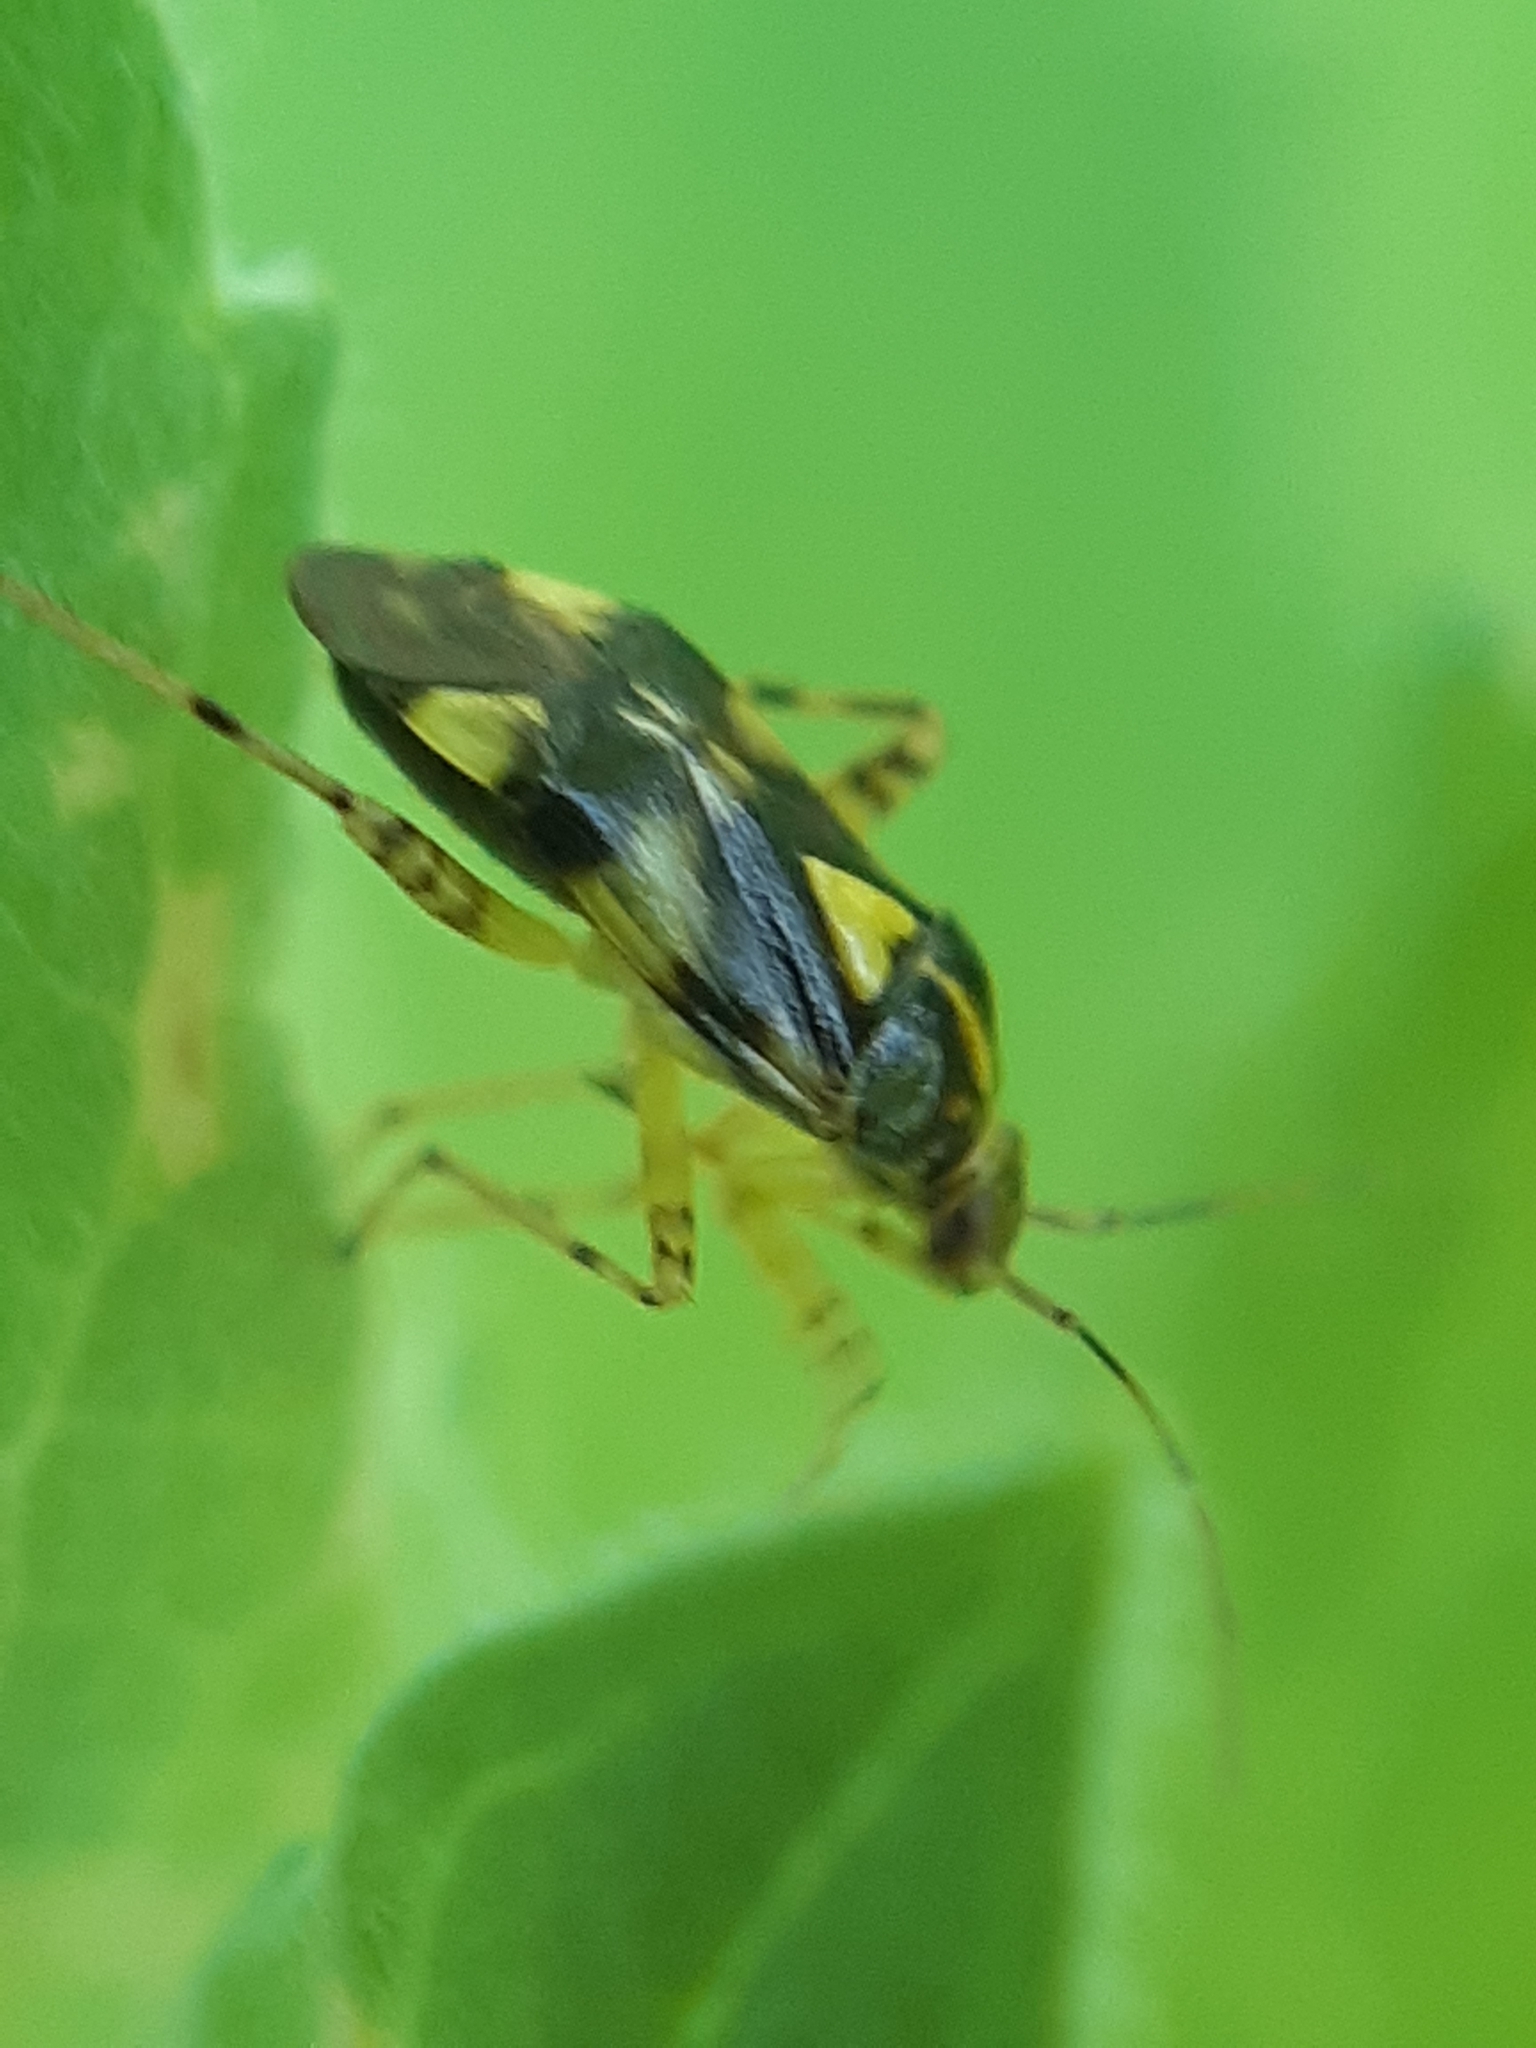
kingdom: Animalia
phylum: Arthropoda
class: Insecta
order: Hemiptera
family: Miridae
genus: Liocoris
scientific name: Liocoris tripustulatus
